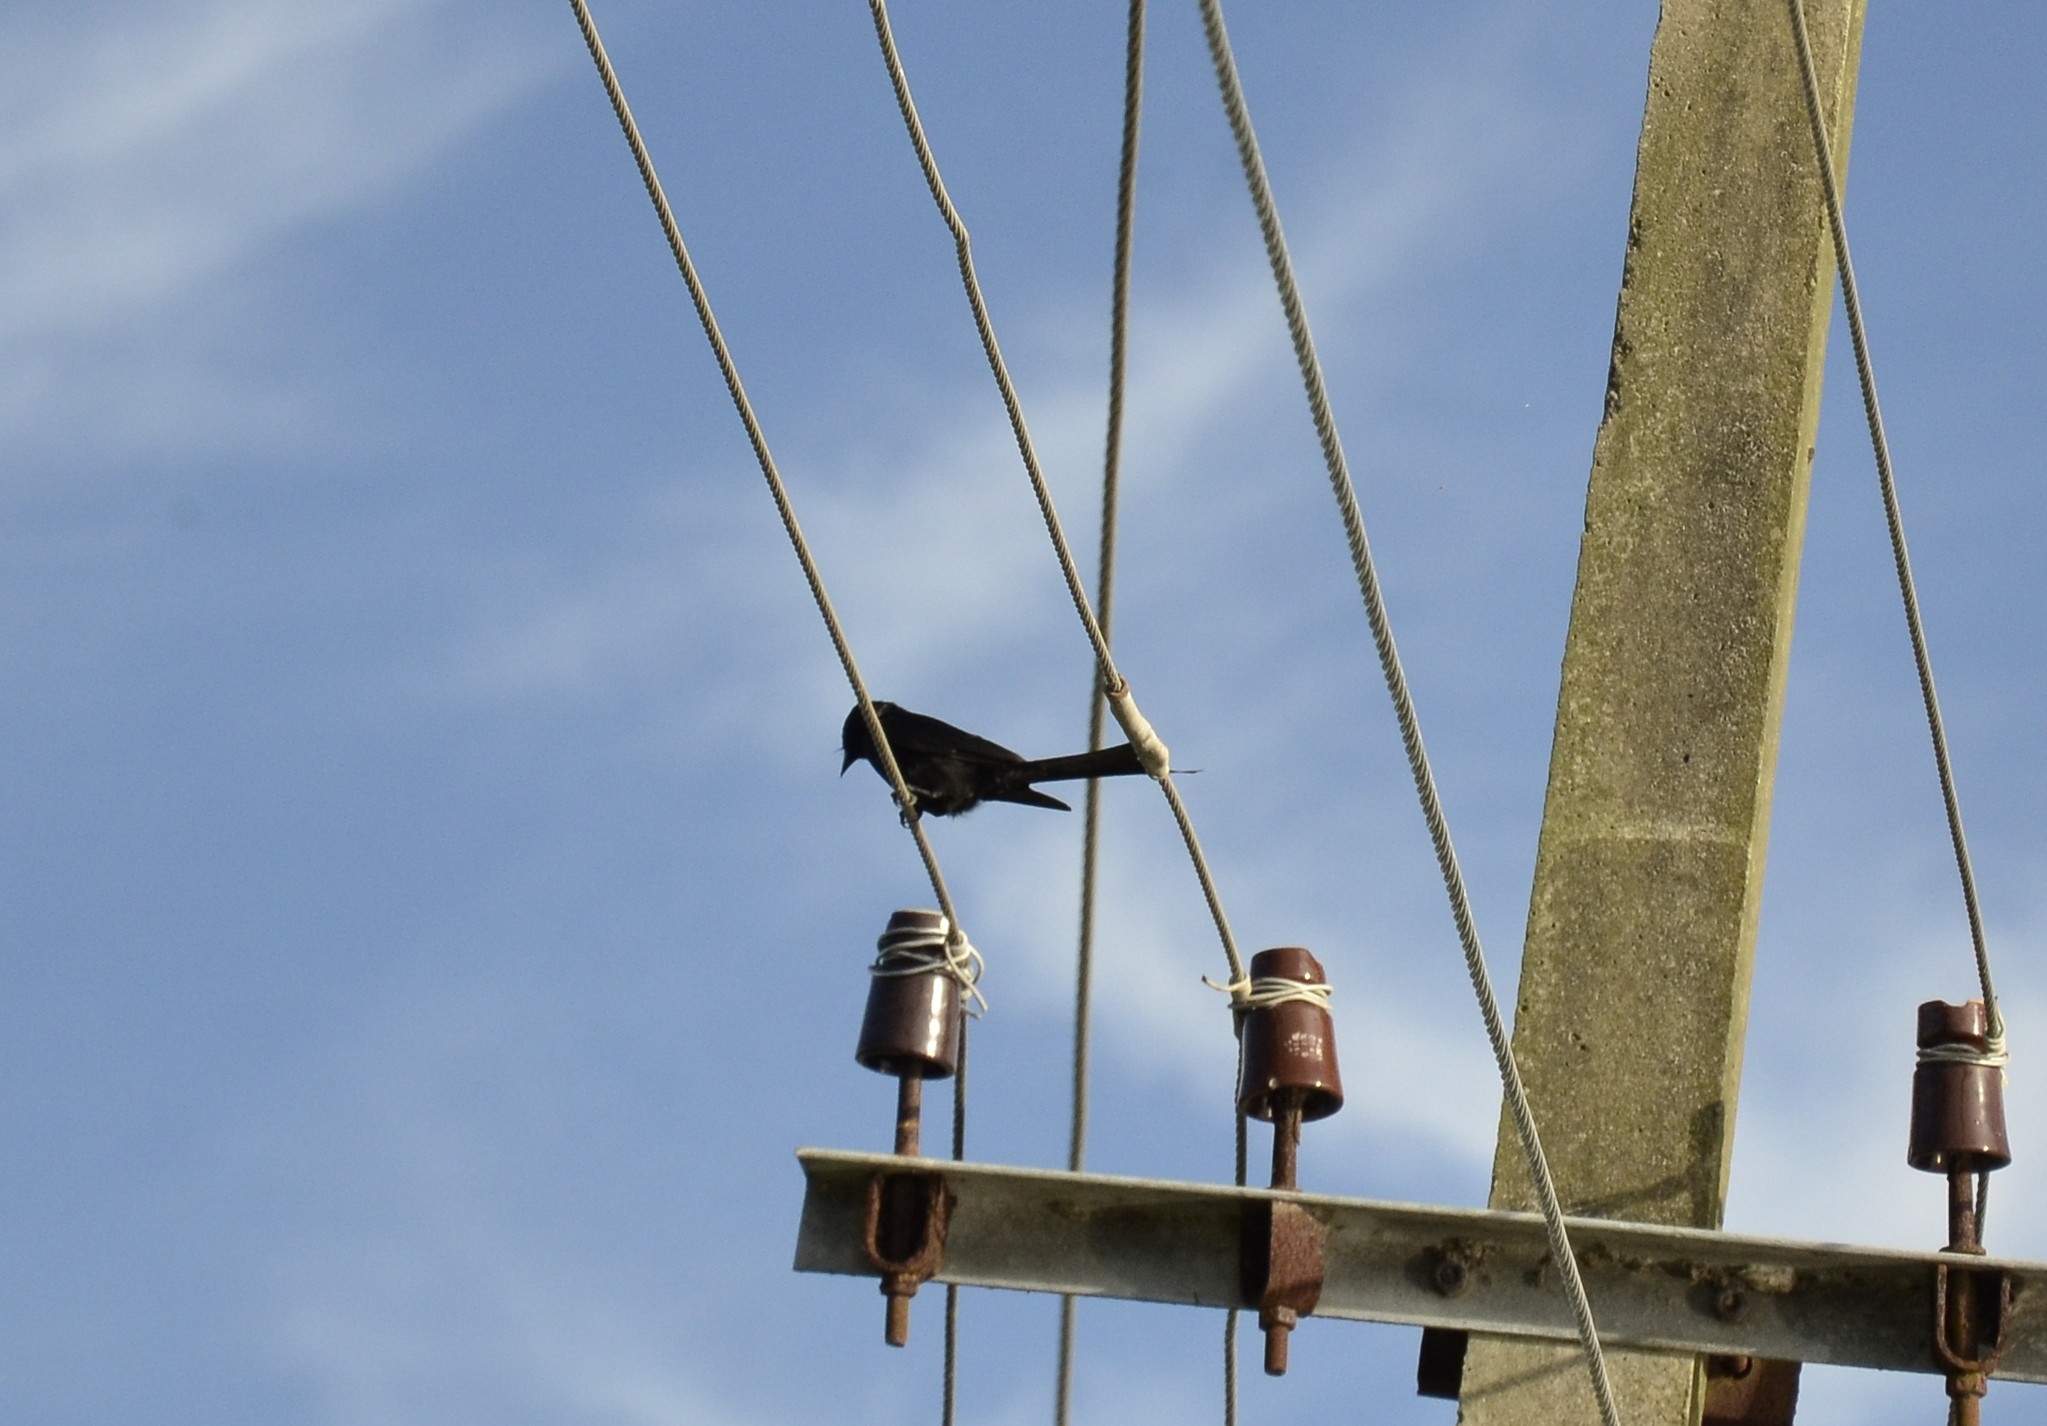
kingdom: Animalia
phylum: Chordata
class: Aves
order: Passeriformes
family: Dicruridae
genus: Dicrurus
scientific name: Dicrurus macrocercus
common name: Black drongo
